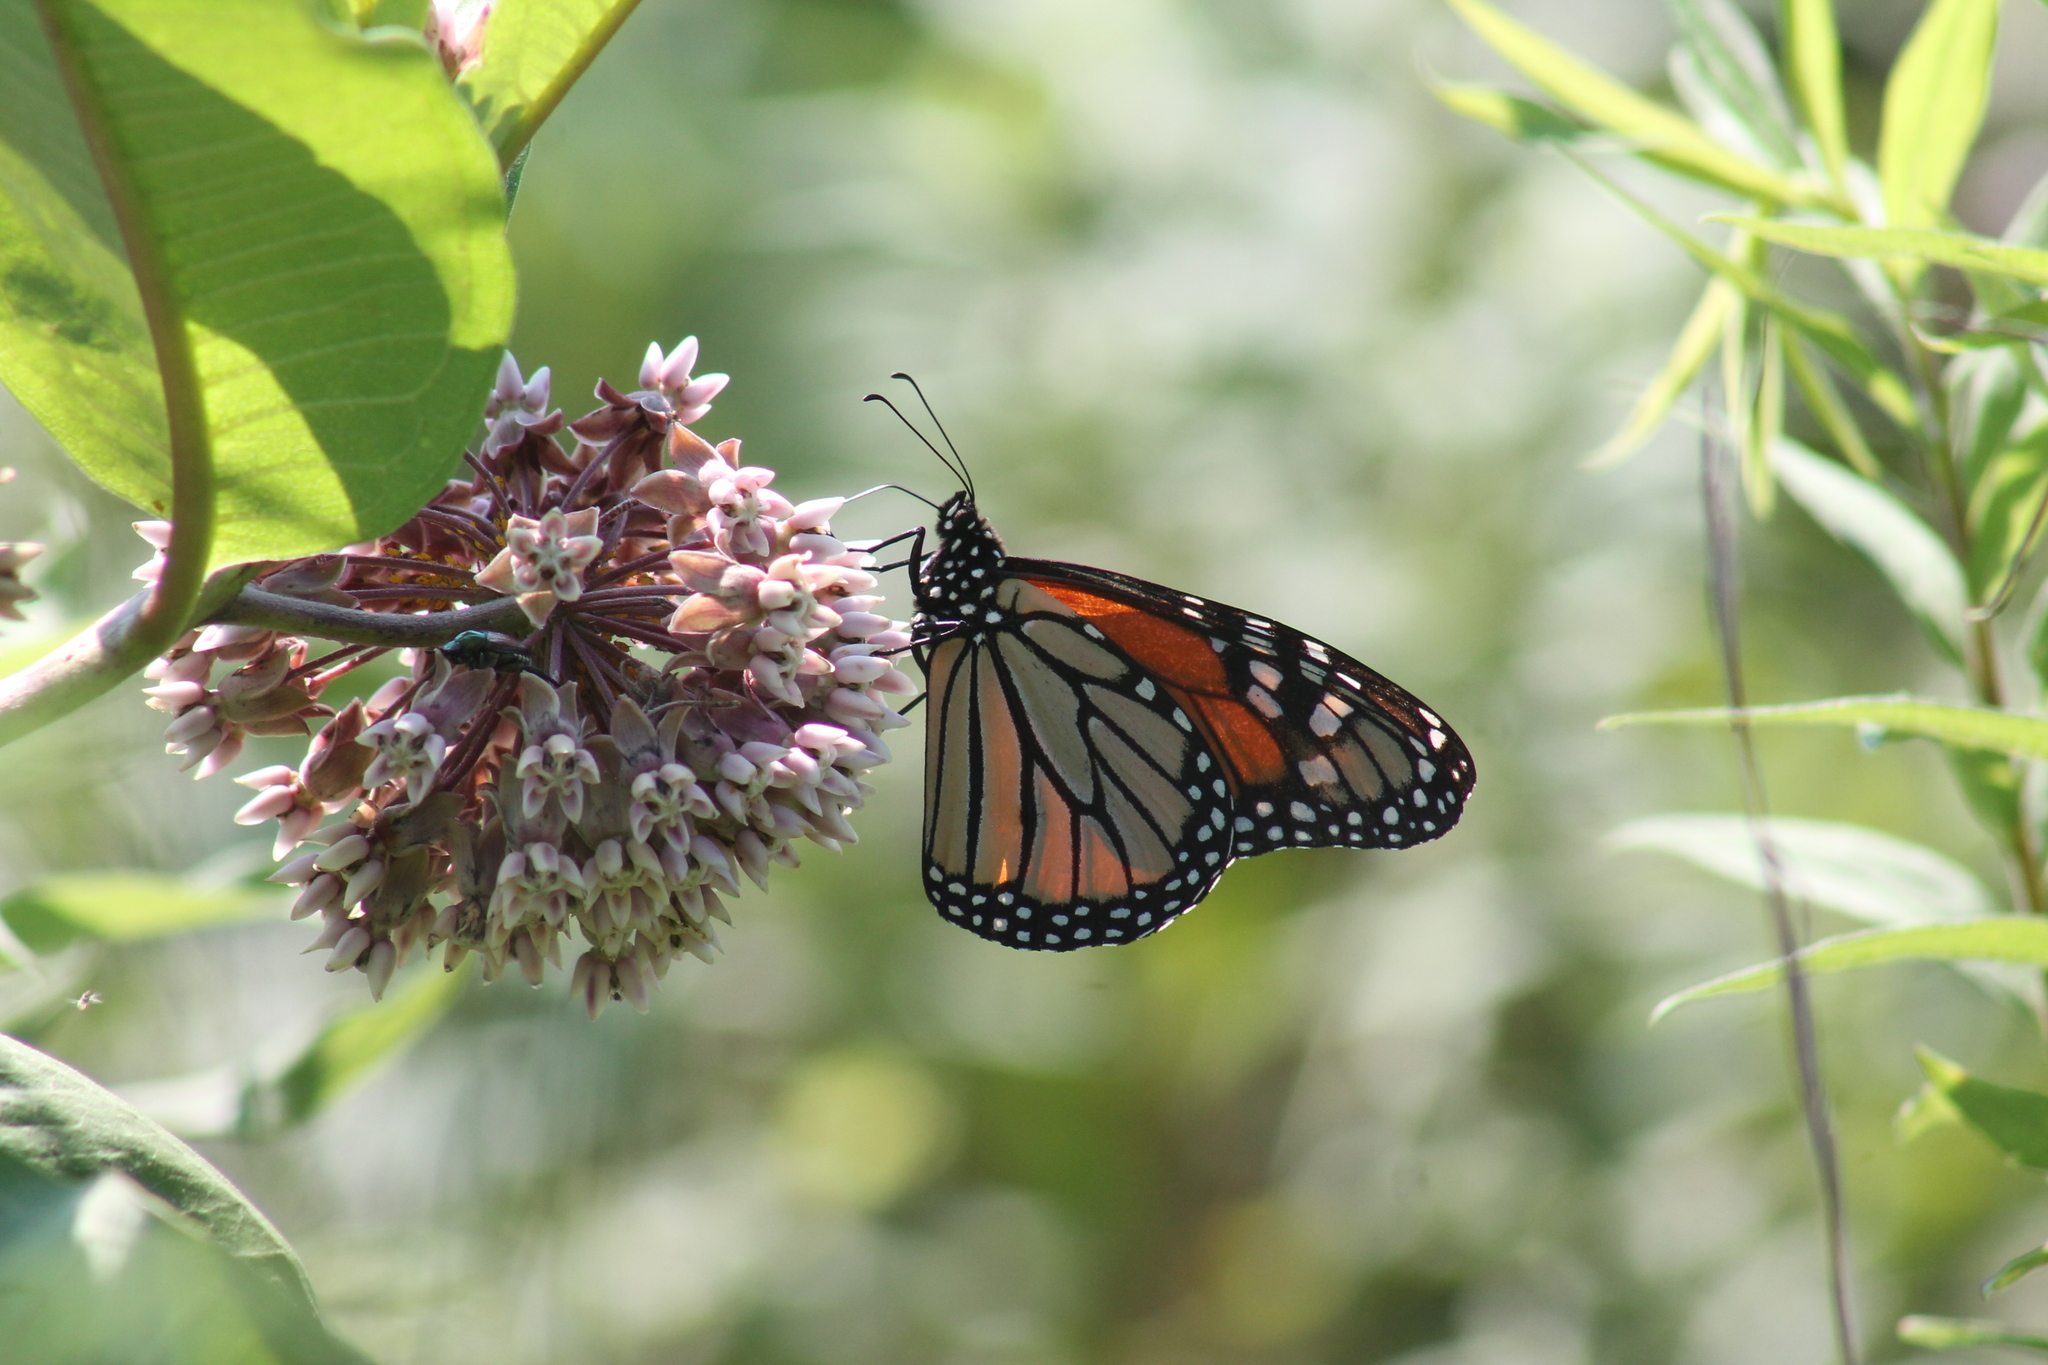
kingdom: Animalia
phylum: Arthropoda
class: Insecta
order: Lepidoptera
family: Nymphalidae
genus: Danaus
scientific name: Danaus plexippus
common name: Monarch
